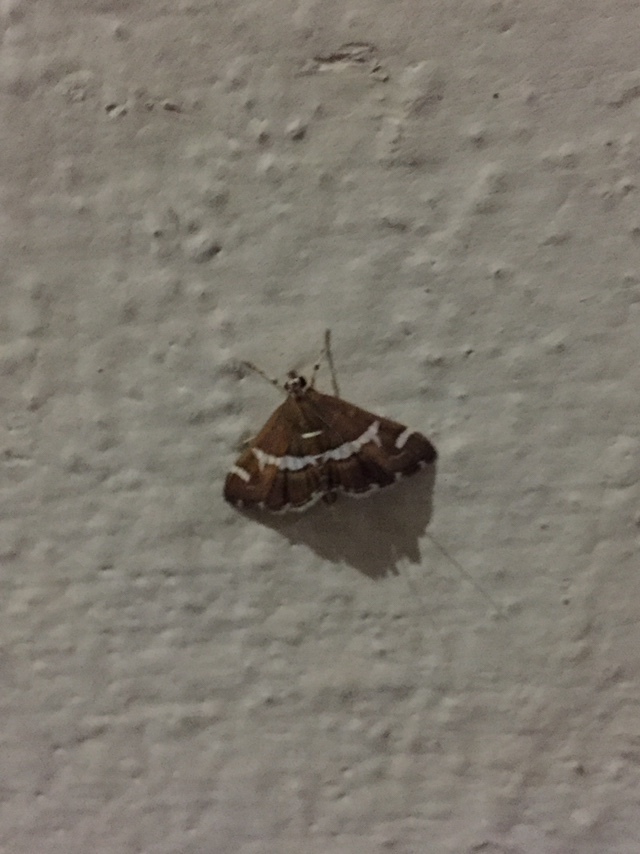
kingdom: Animalia
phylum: Arthropoda
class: Insecta
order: Lepidoptera
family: Crambidae
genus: Spoladea
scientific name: Spoladea recurvalis
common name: Beet webworm moth
